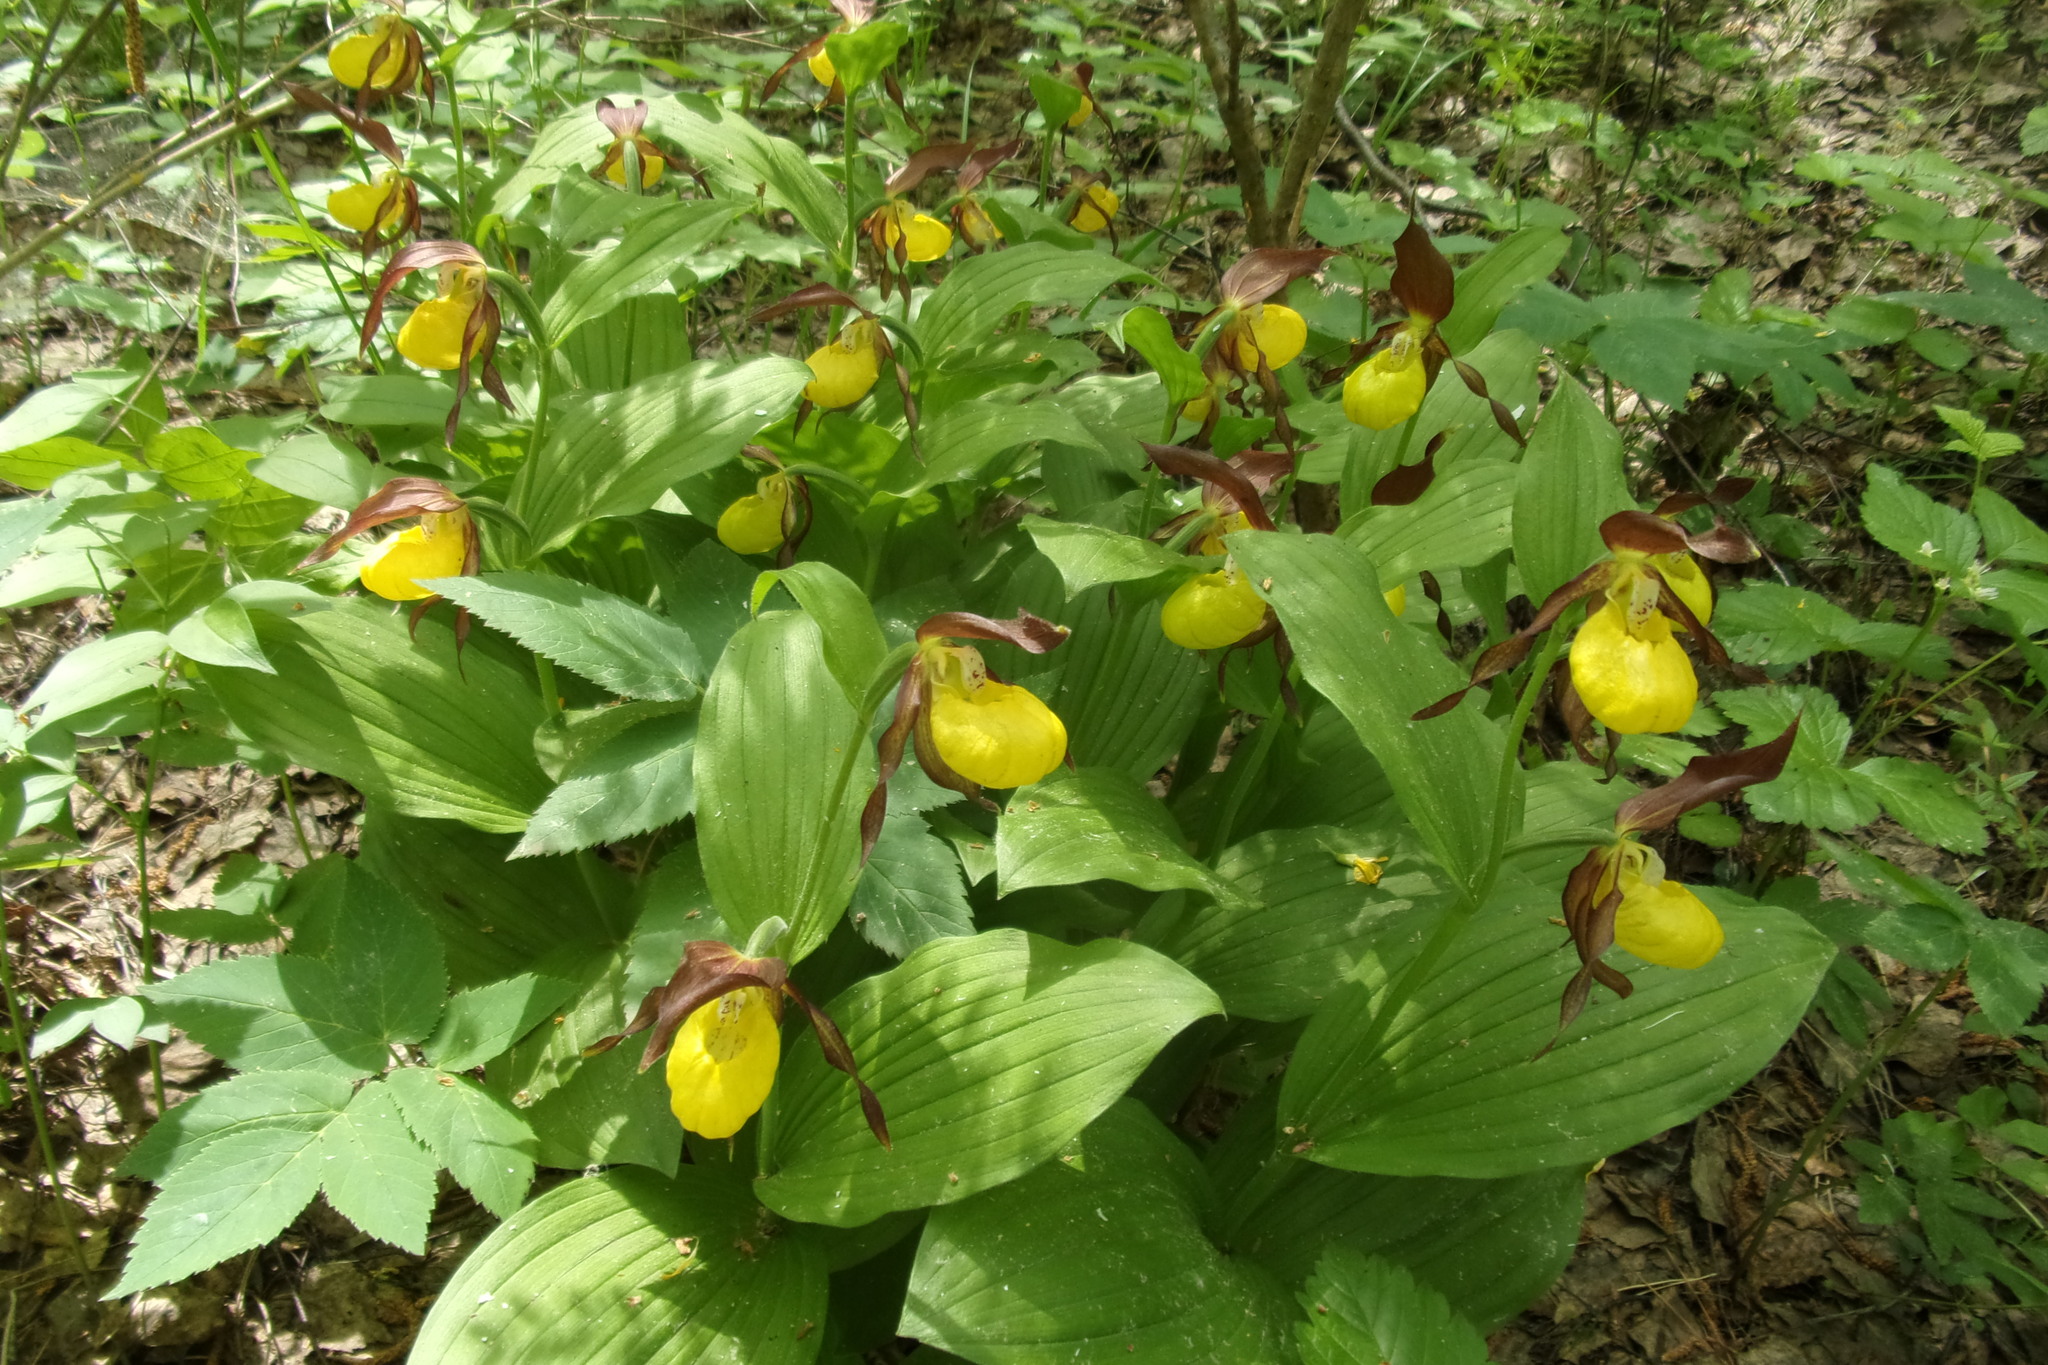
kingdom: Plantae
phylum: Tracheophyta
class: Liliopsida
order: Asparagales
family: Orchidaceae
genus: Cypripedium
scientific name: Cypripedium calceolus
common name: Lady's-slipper
